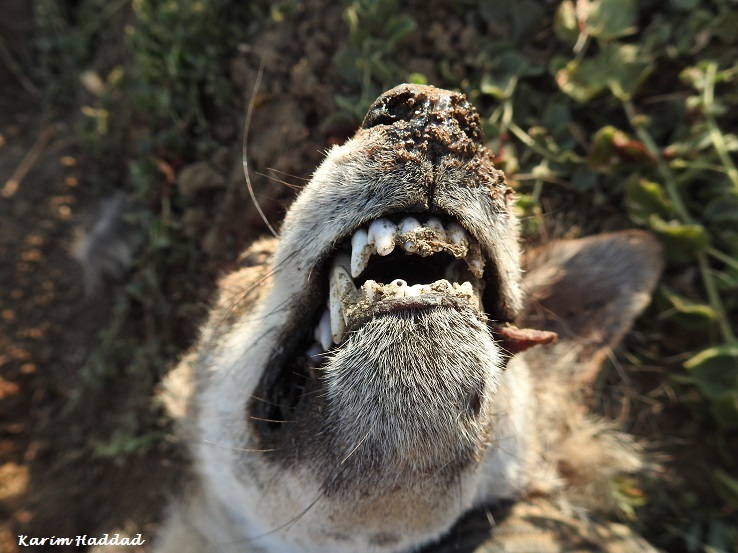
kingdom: Animalia
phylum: Chordata
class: Mammalia
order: Carnivora
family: Canidae
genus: Canis
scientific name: Canis lupaster
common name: African golden wolf
